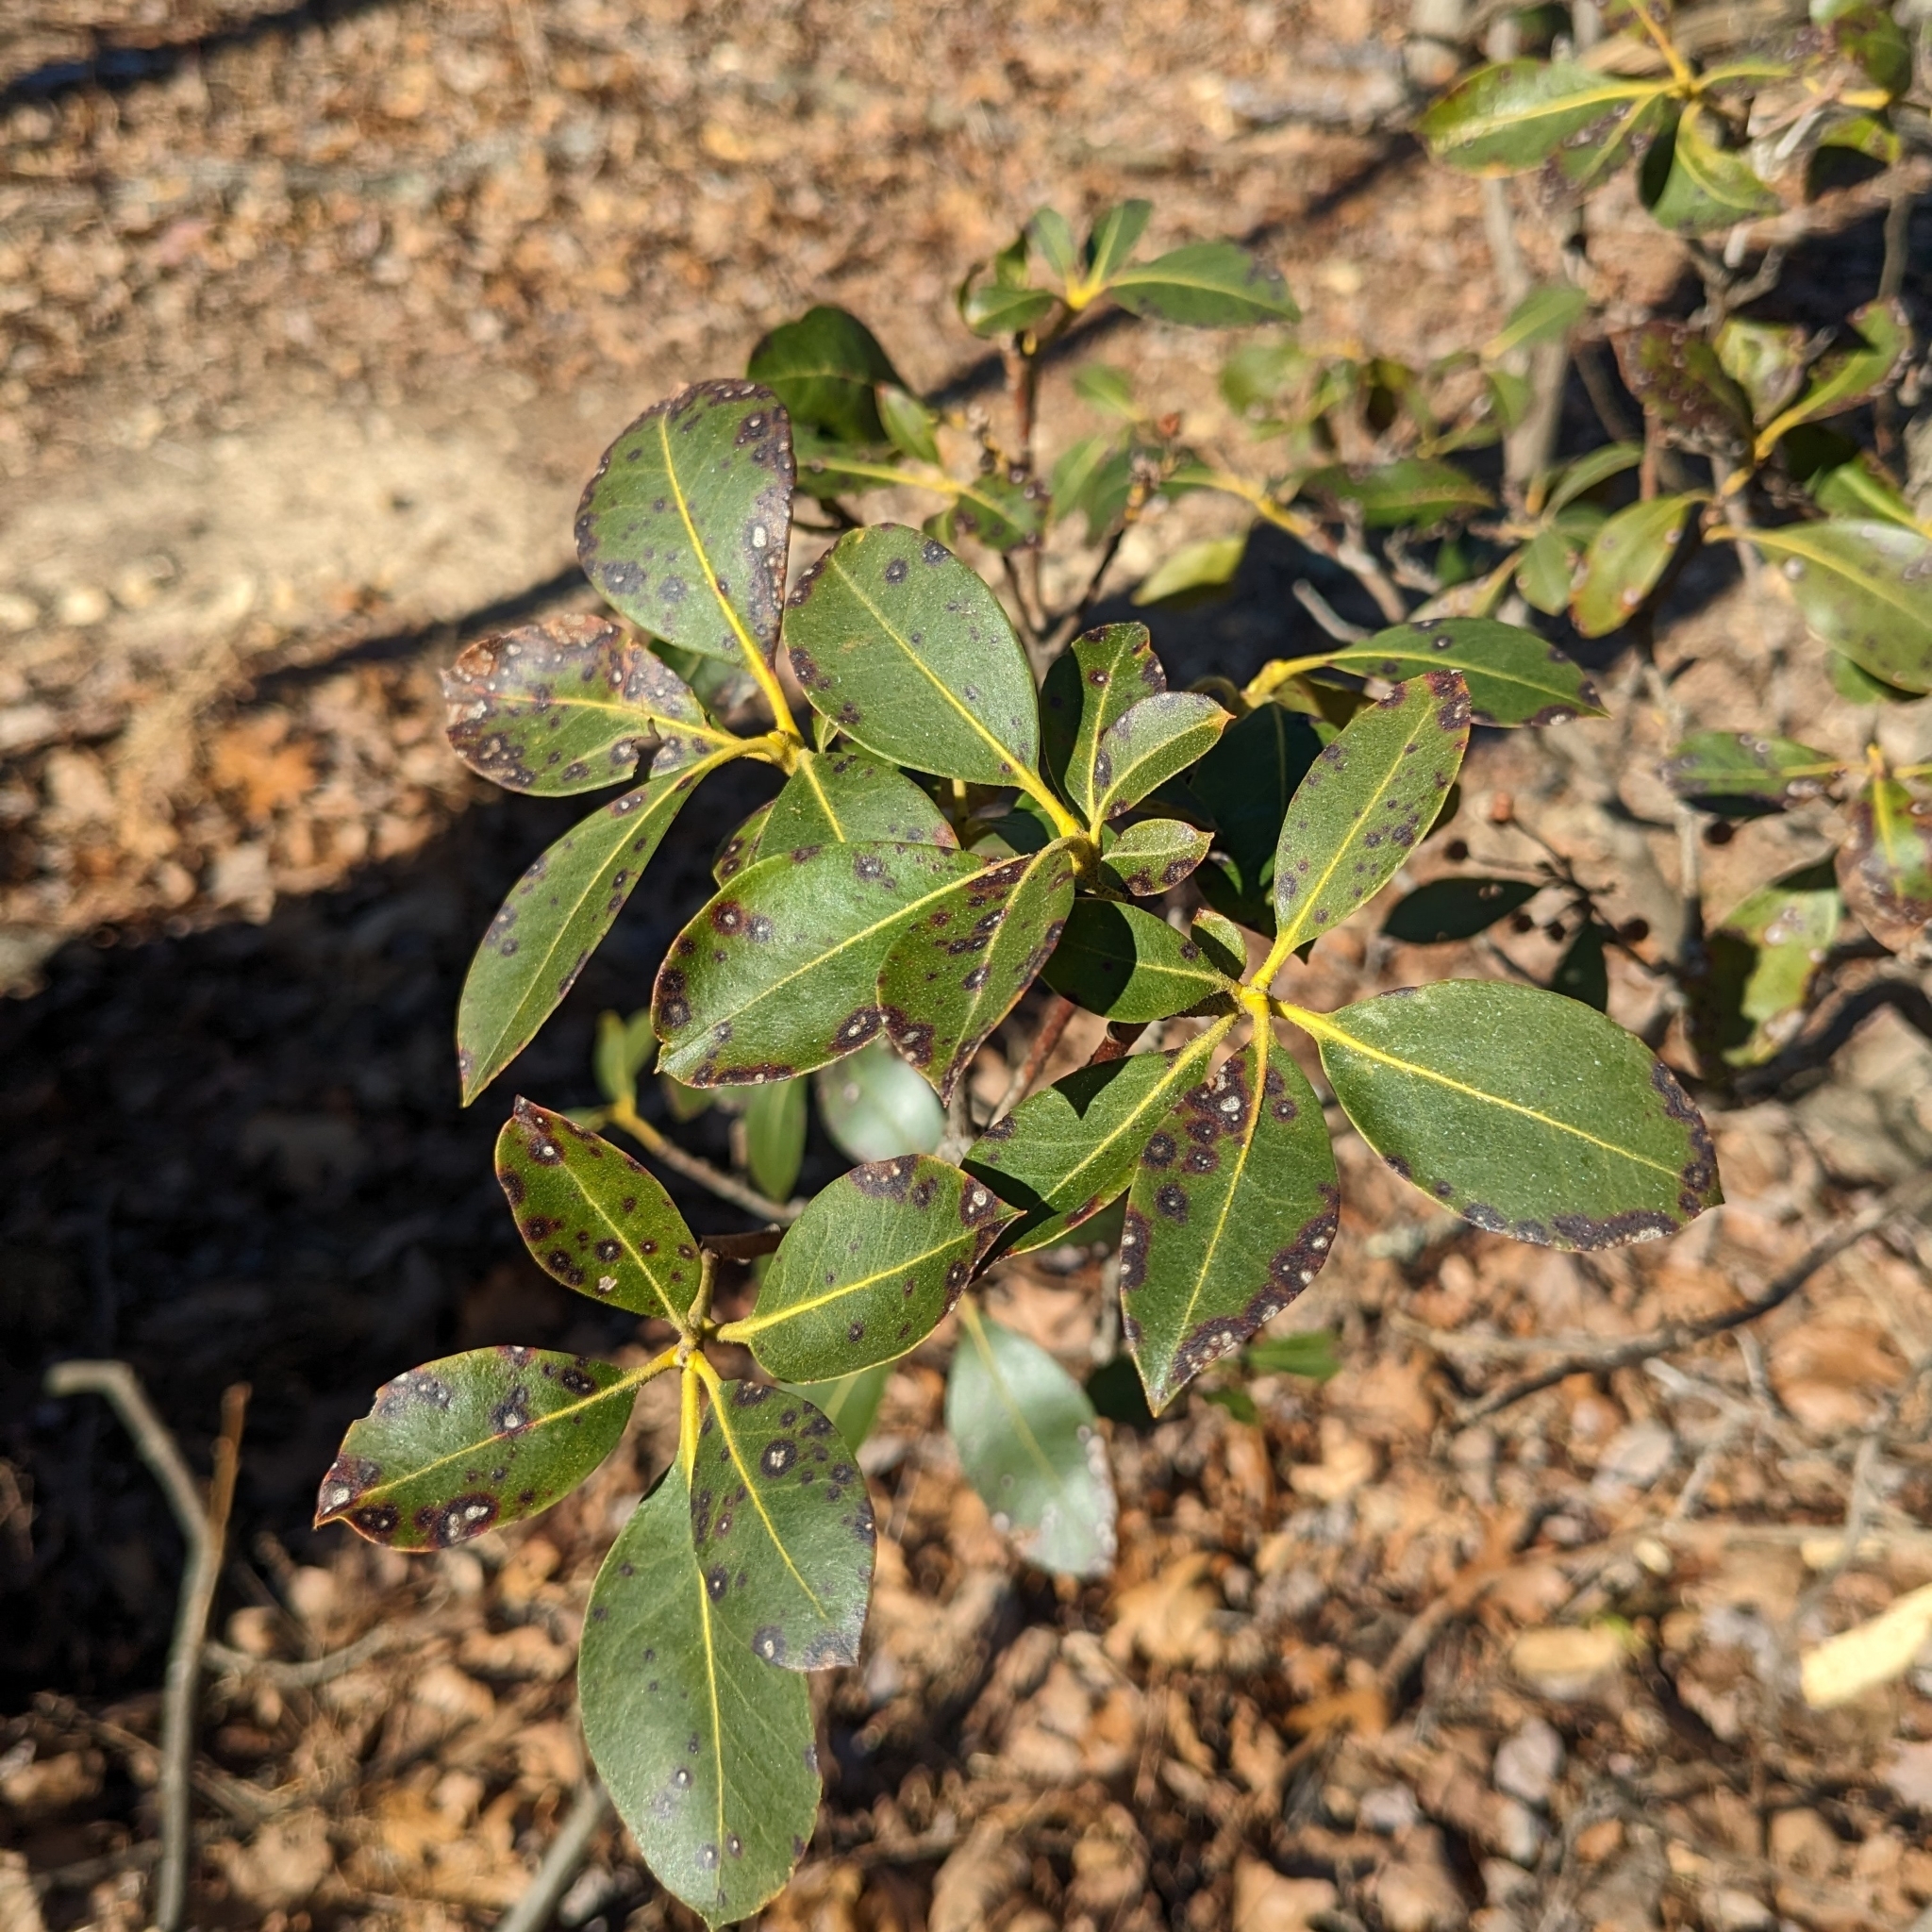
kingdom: Fungi
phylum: Ascomycota
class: Dothideomycetes
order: Mycosphaerellales
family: Mycosphaerellaceae
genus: Mycosphaerella
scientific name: Mycosphaerella colorata
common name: Mountain laurel leaf spot
